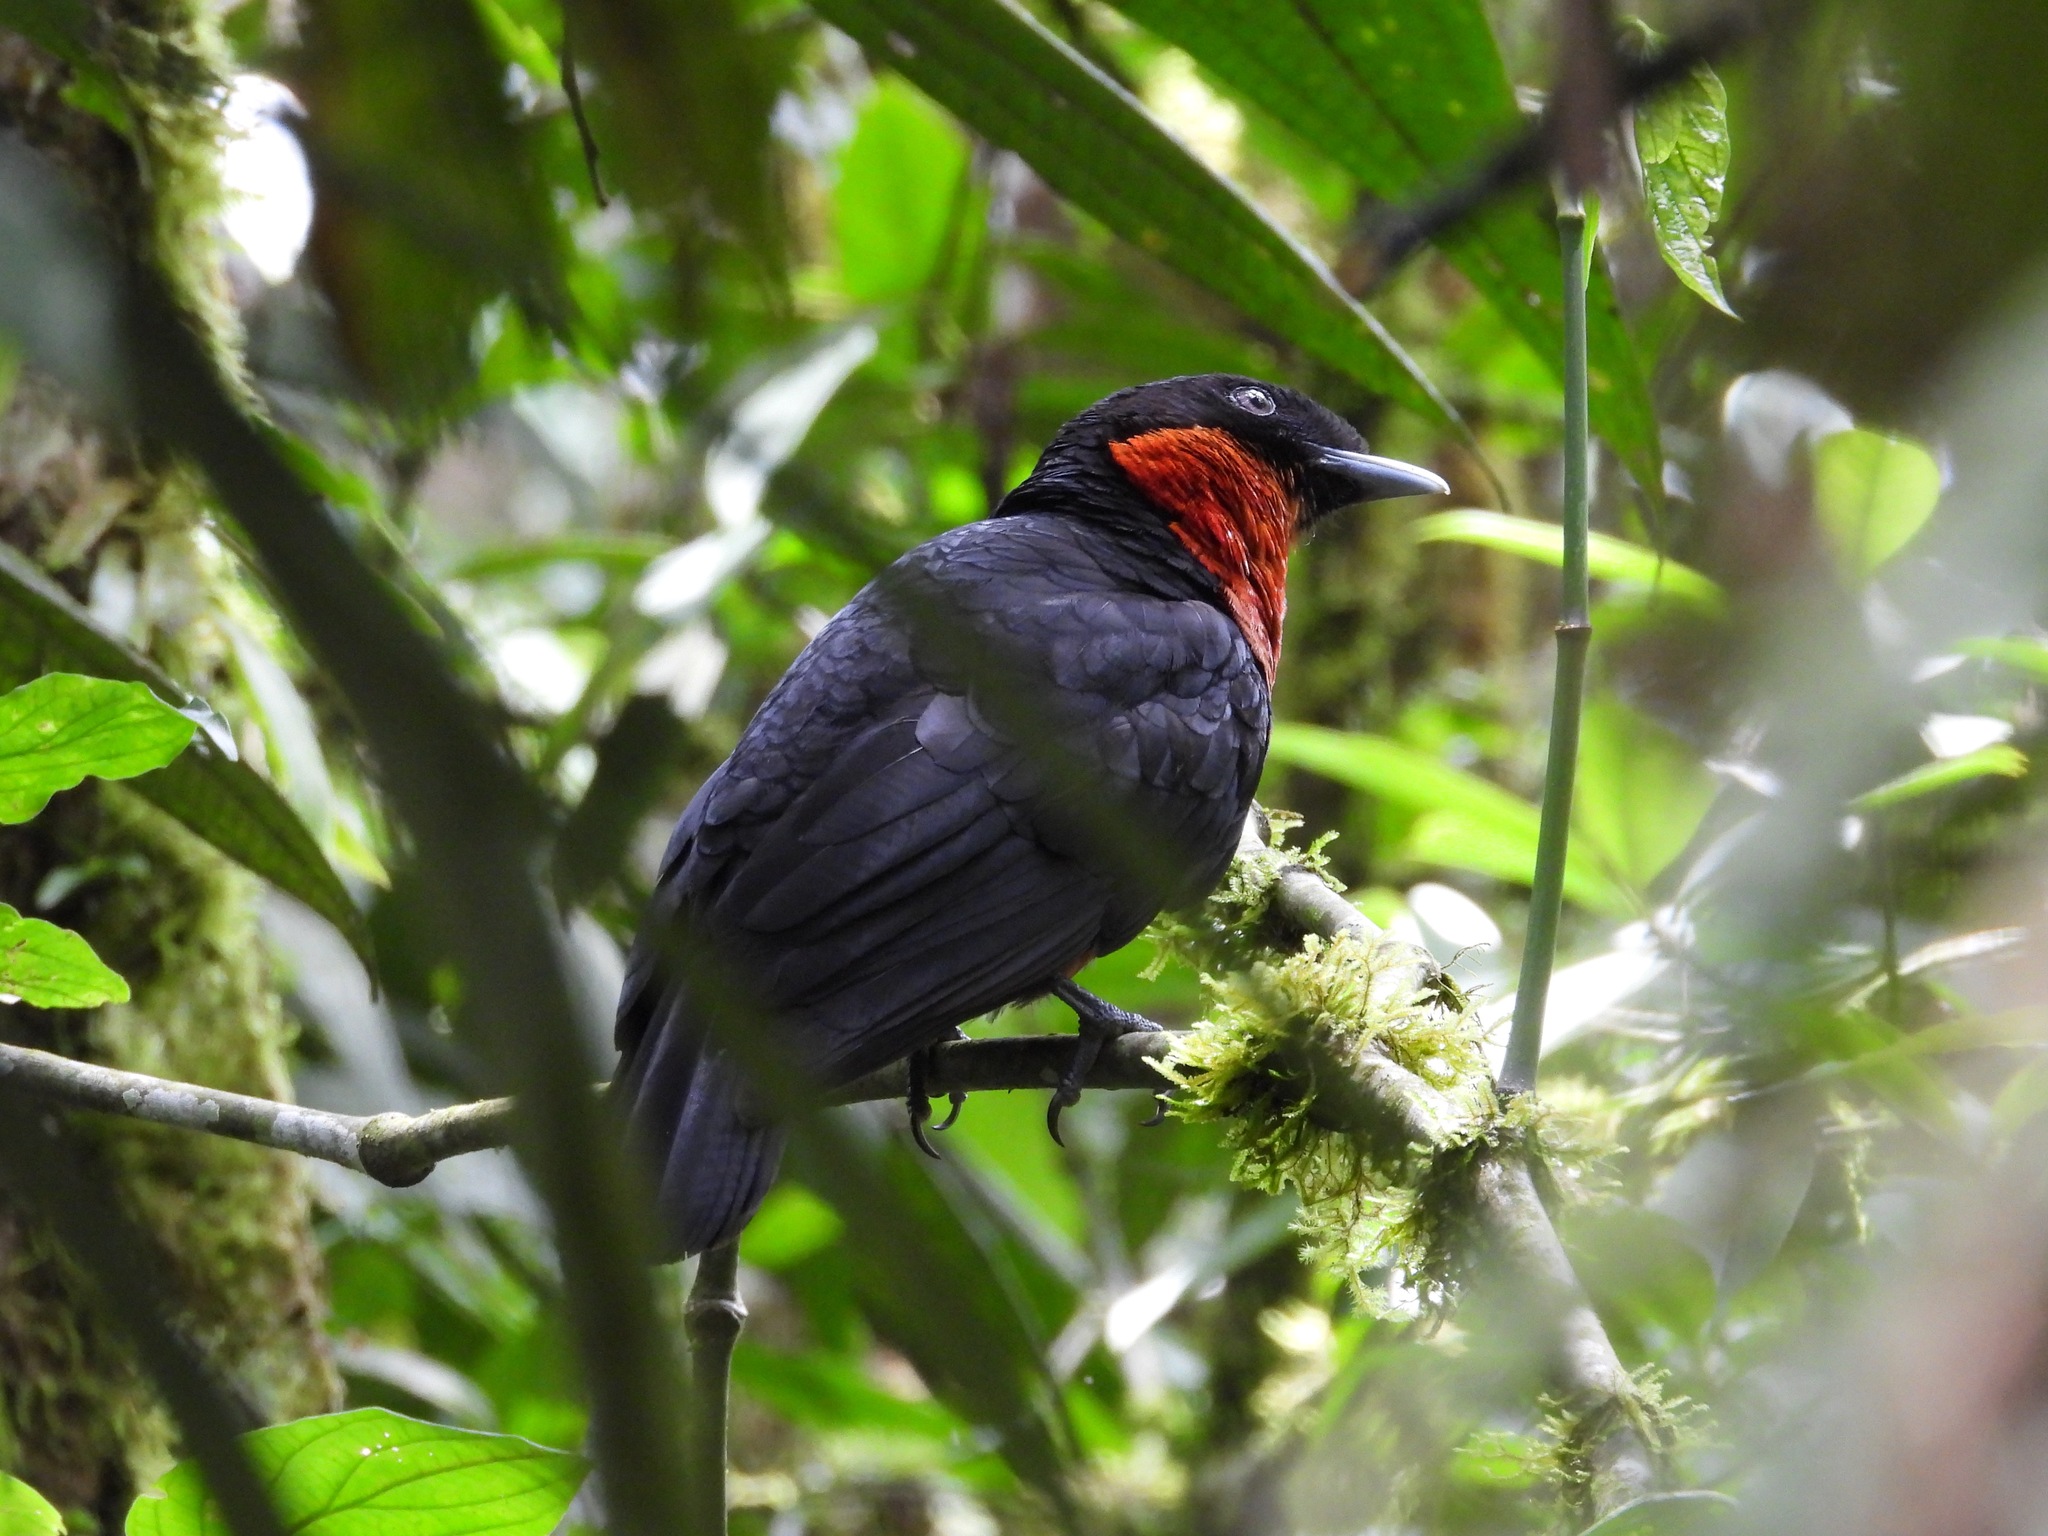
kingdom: Animalia
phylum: Chordata
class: Aves
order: Passeriformes
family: Cotingidae
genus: Pyroderus
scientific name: Pyroderus scutatus
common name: Red-ruffed fruitcrow
